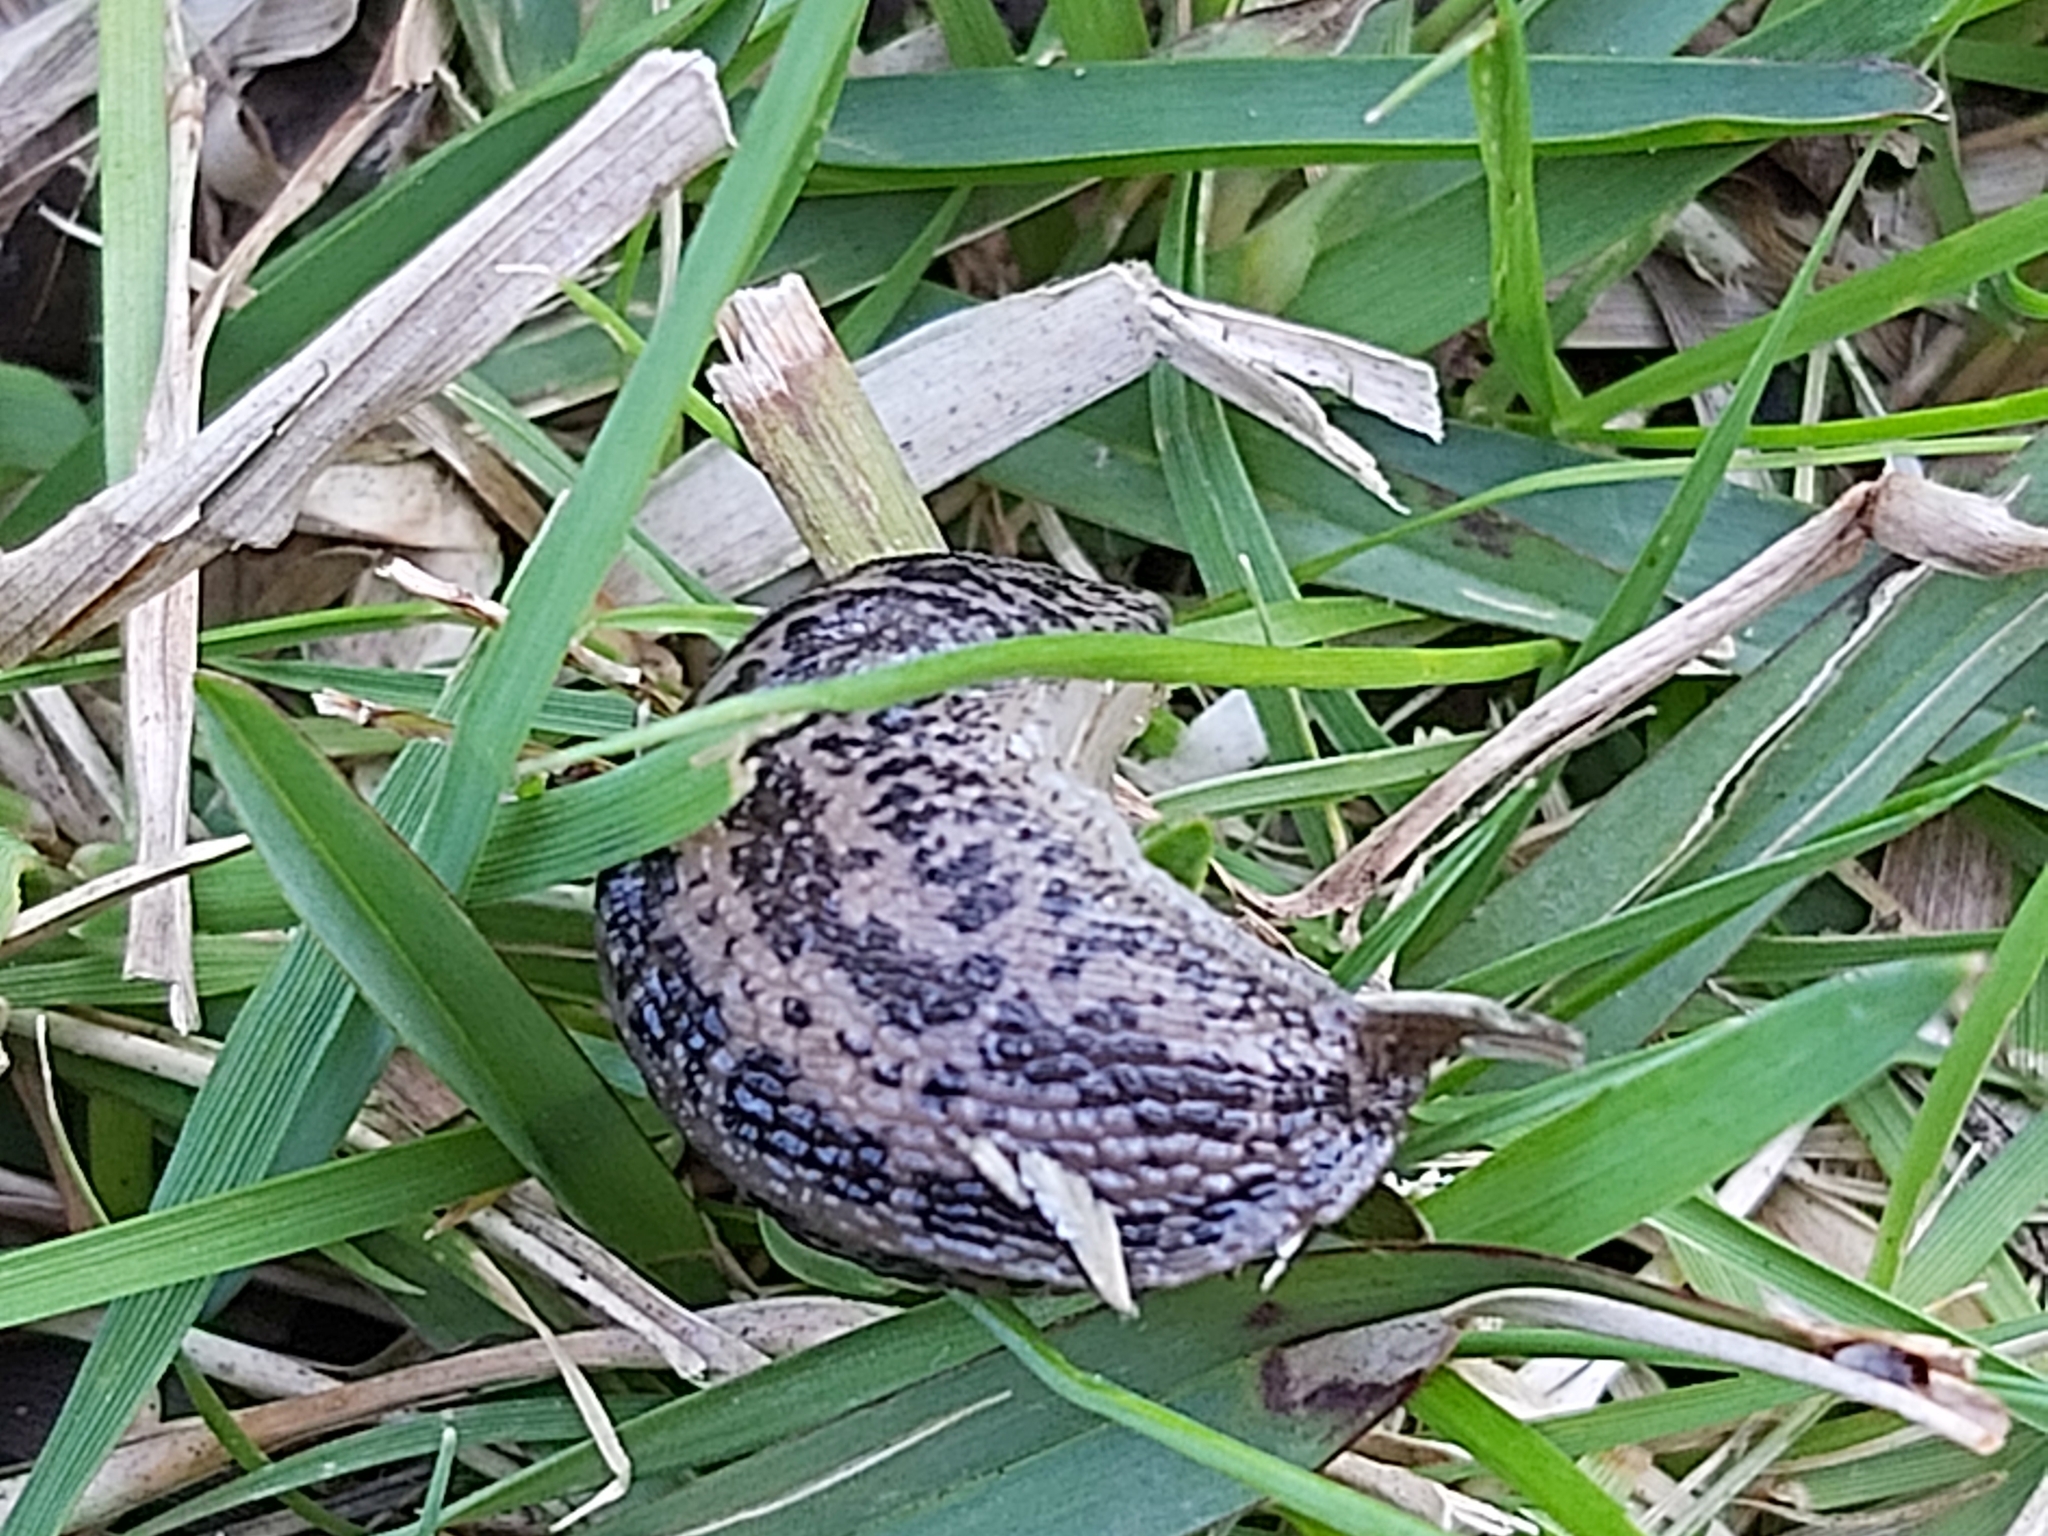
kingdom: Animalia
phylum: Mollusca
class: Gastropoda
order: Stylommatophora
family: Limacidae
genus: Limax
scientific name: Limax maximus
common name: Great grey slug
